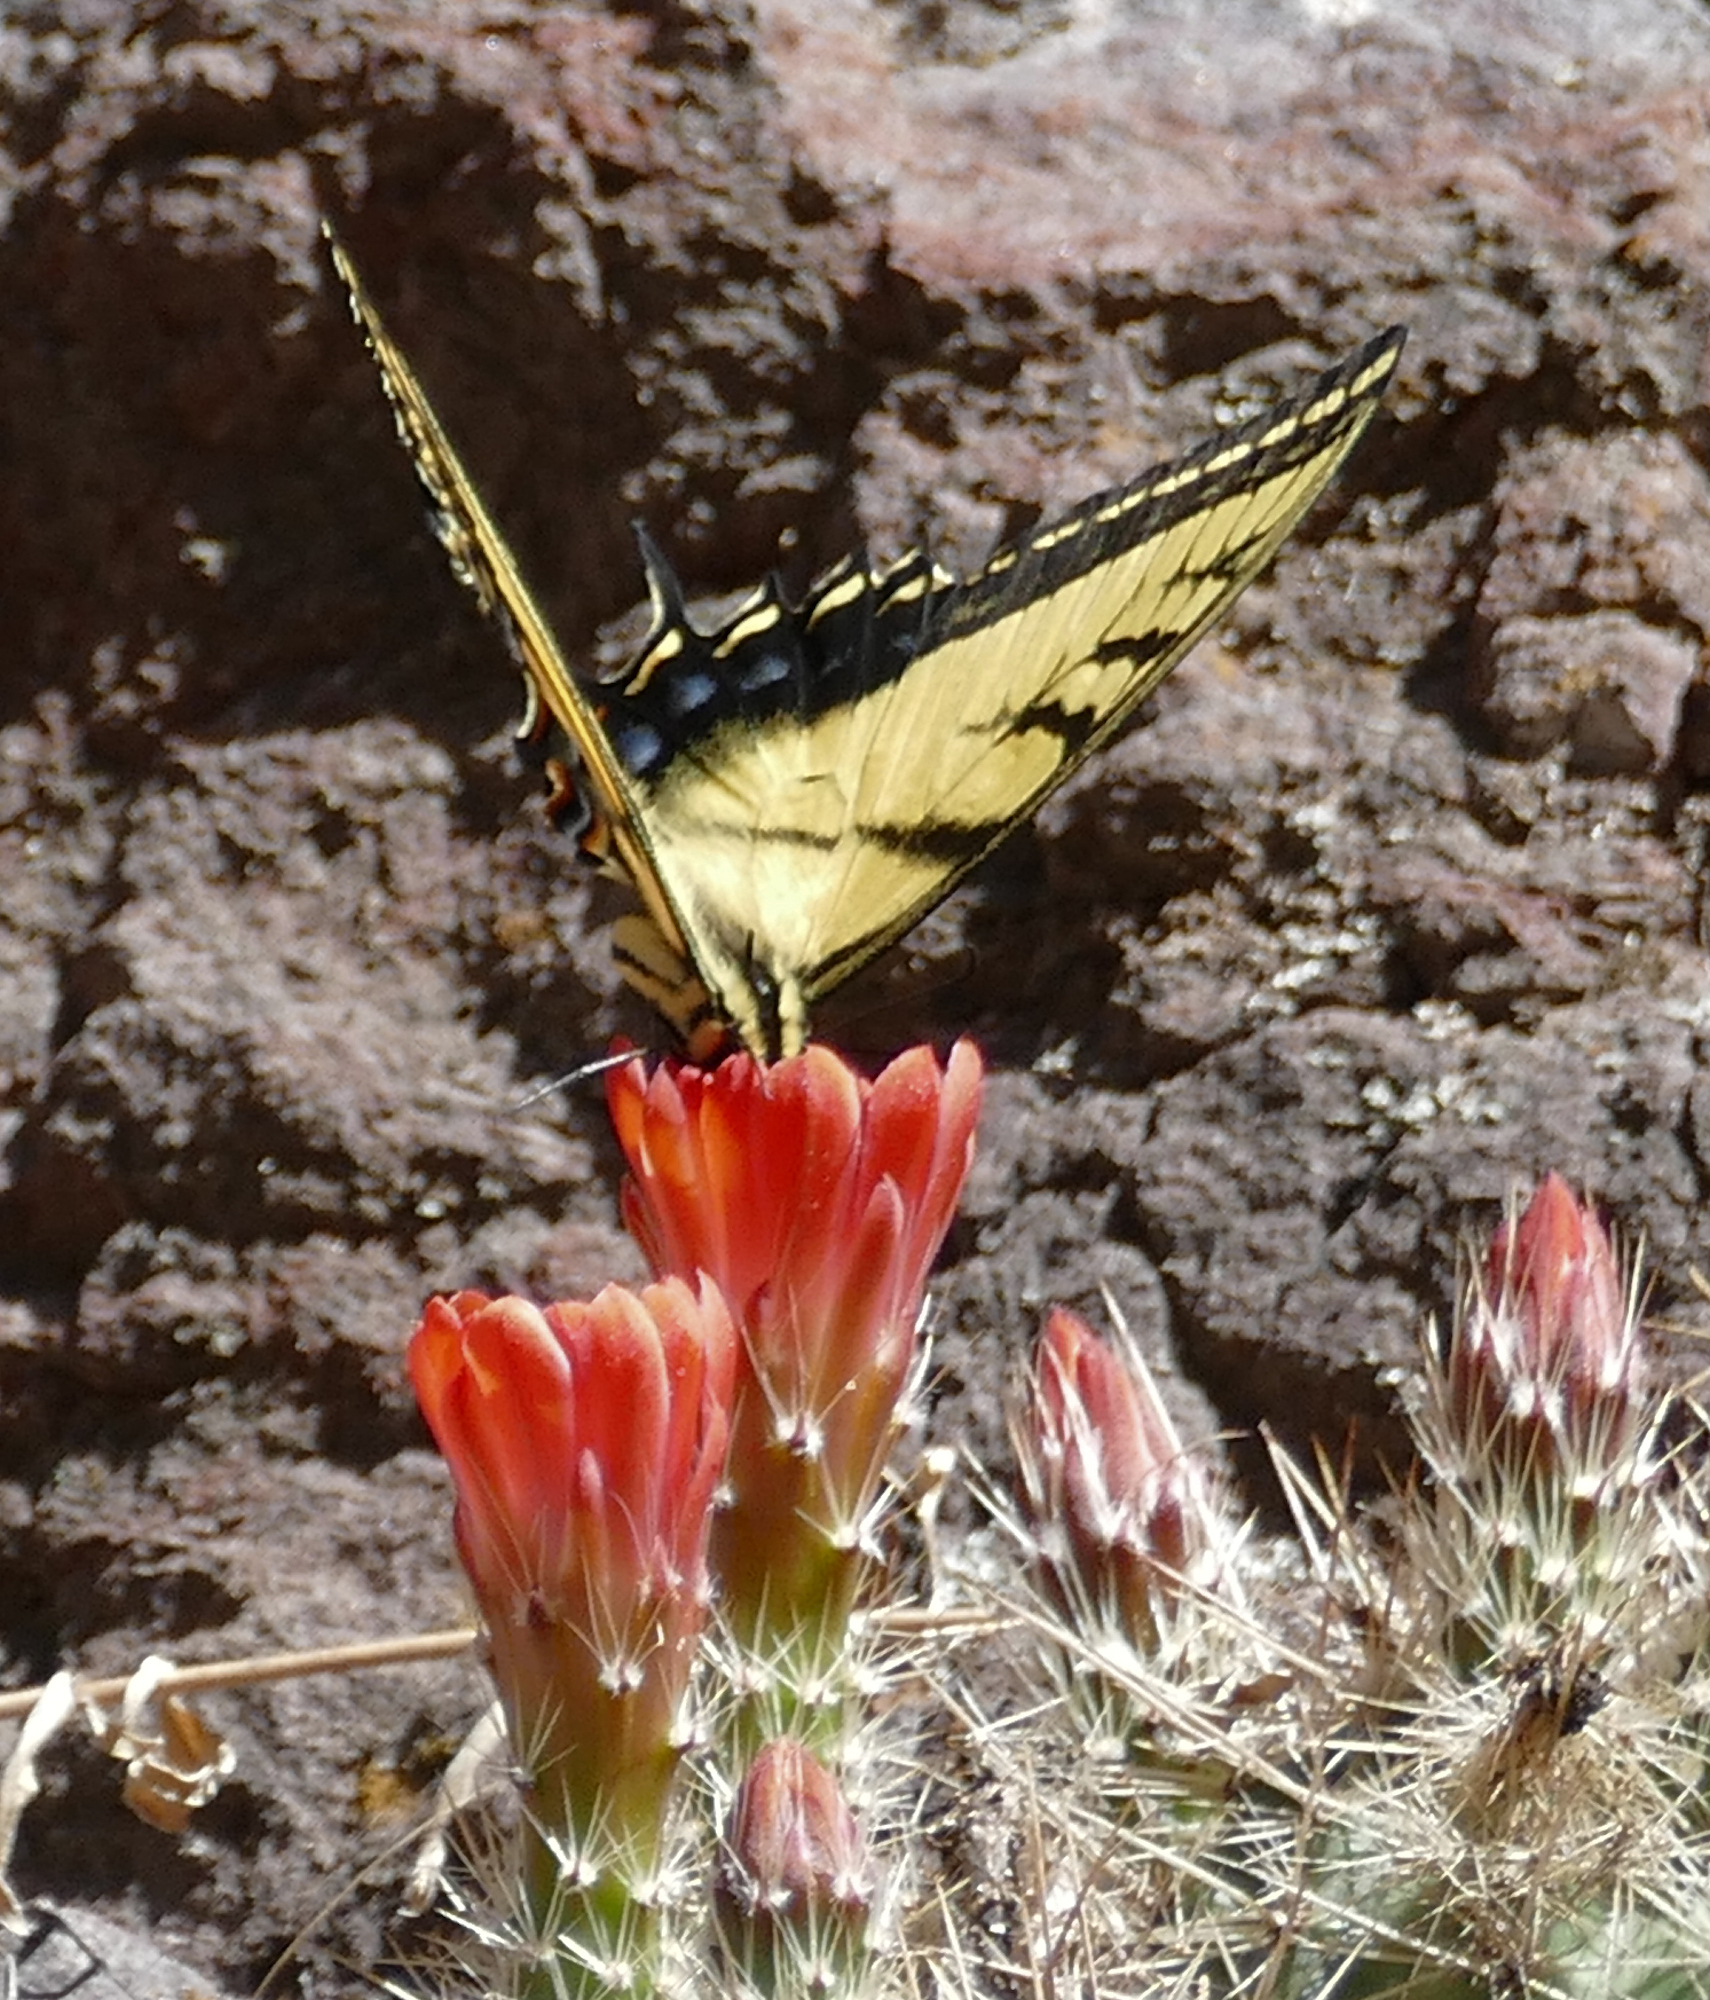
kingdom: Animalia
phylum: Arthropoda
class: Insecta
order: Lepidoptera
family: Papilionidae
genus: Papilio
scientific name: Papilio multicaudata
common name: Two-tailed tiger swallowtail
